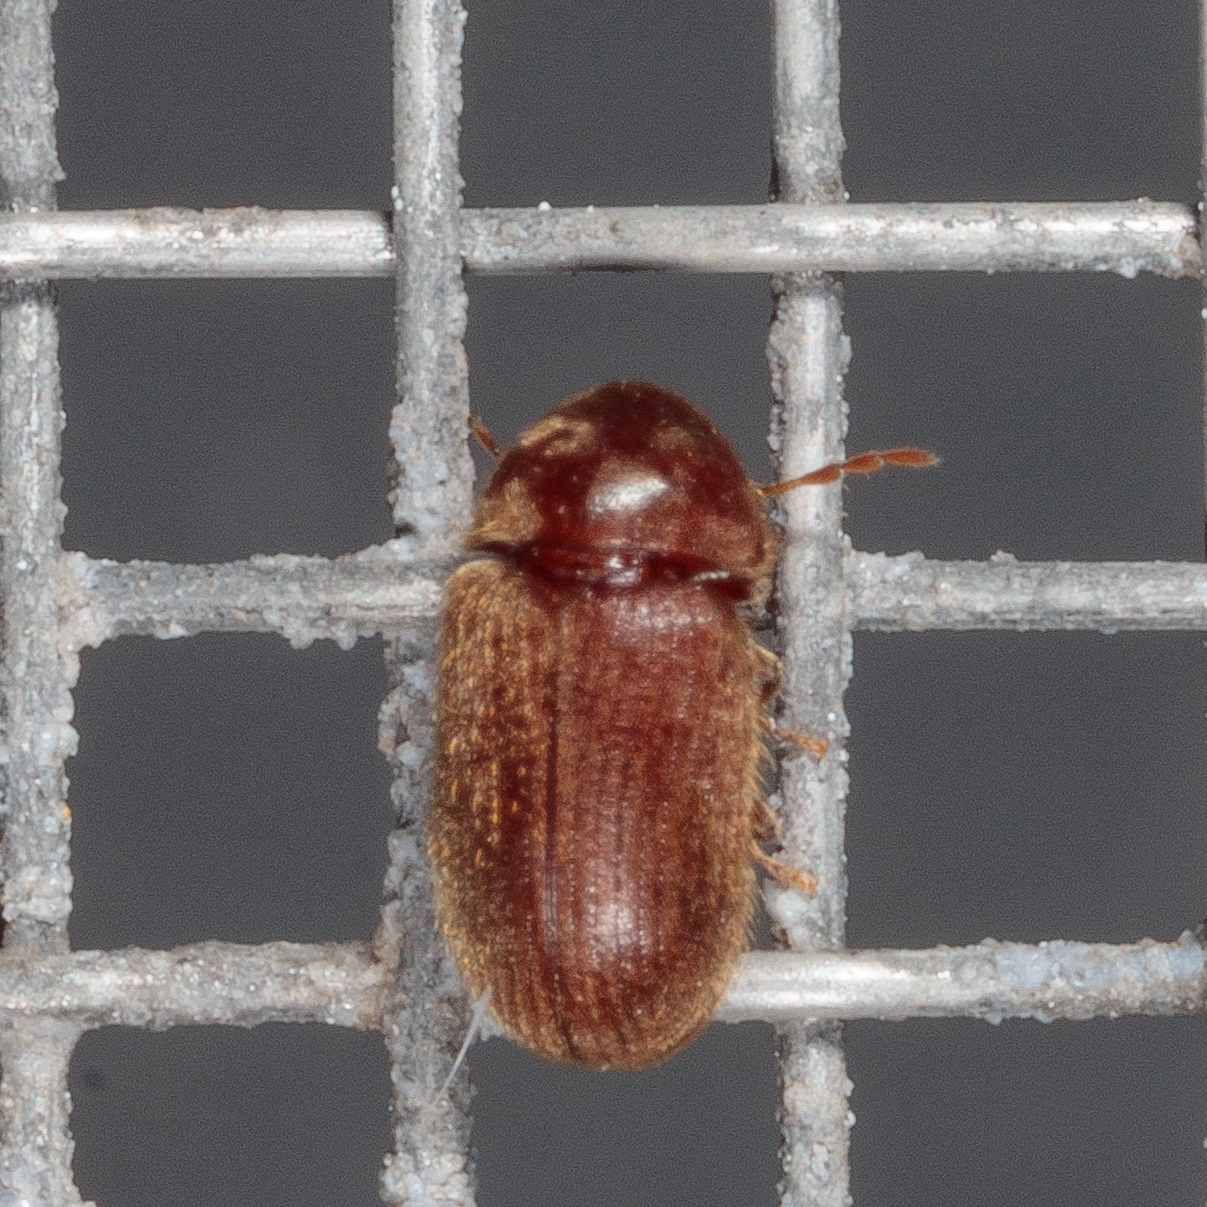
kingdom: Animalia
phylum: Arthropoda
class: Insecta
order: Coleoptera
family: Anobiidae
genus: Stegobium
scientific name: Stegobium paniceum
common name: Drugstore beetle
